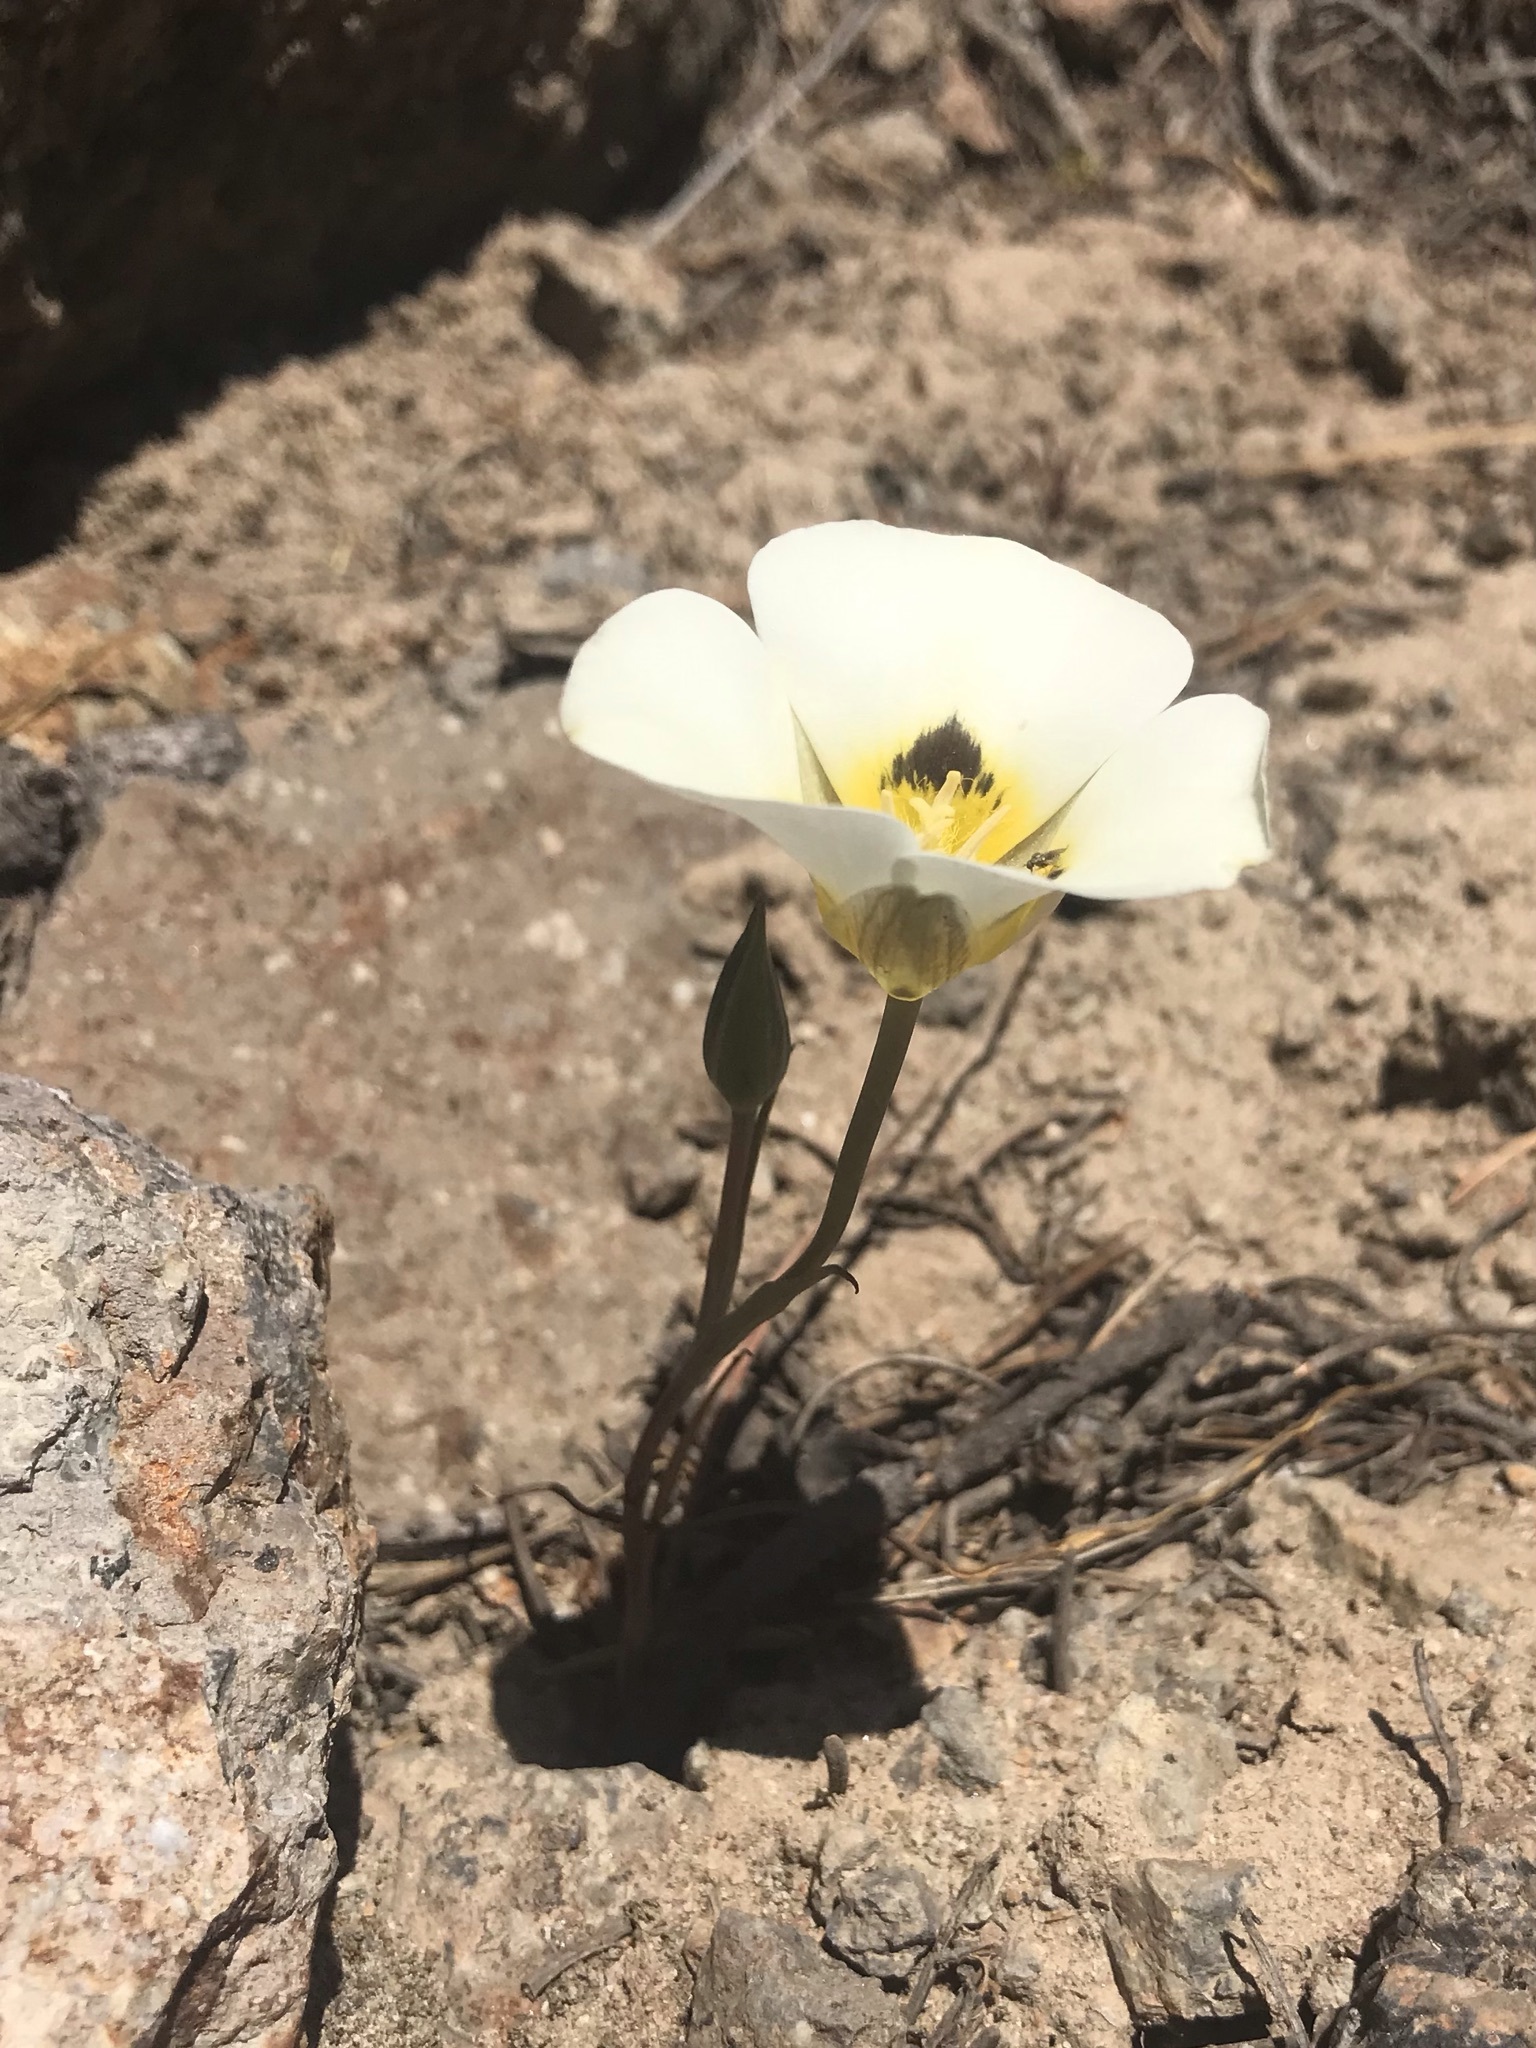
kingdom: Plantae
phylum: Tracheophyta
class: Liliopsida
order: Liliales
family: Liliaceae
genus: Calochortus
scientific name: Calochortus leichtlinii
